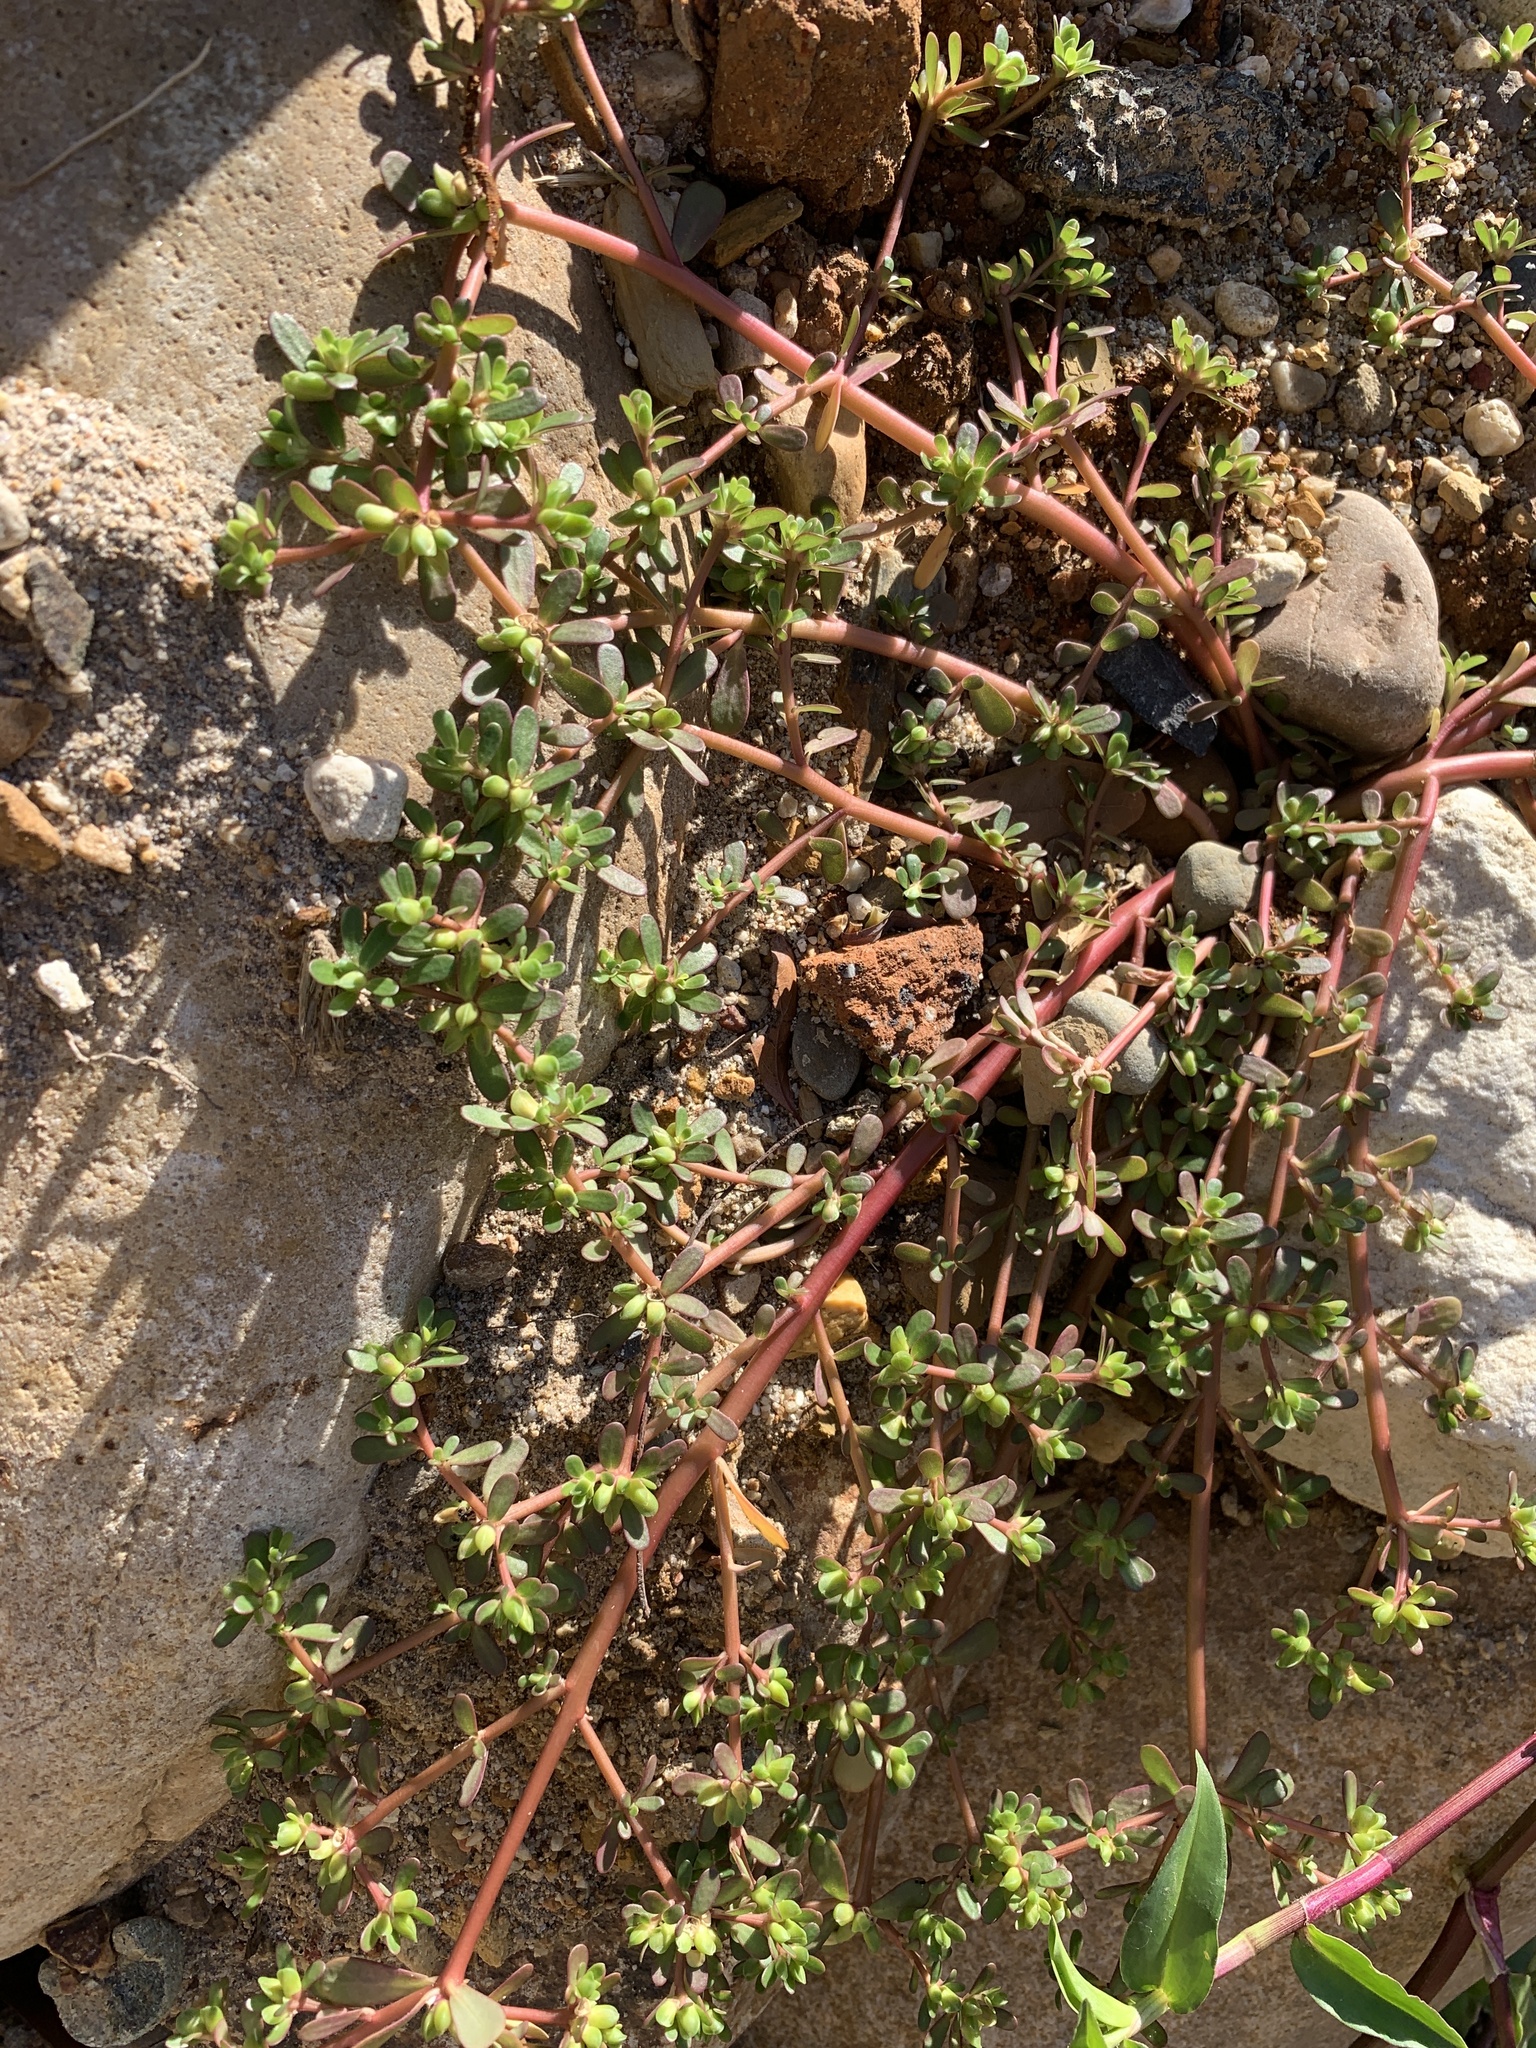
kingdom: Plantae
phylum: Tracheophyta
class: Magnoliopsida
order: Caryophyllales
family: Portulacaceae
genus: Portulaca
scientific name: Portulaca oleracea
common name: Common purslane
